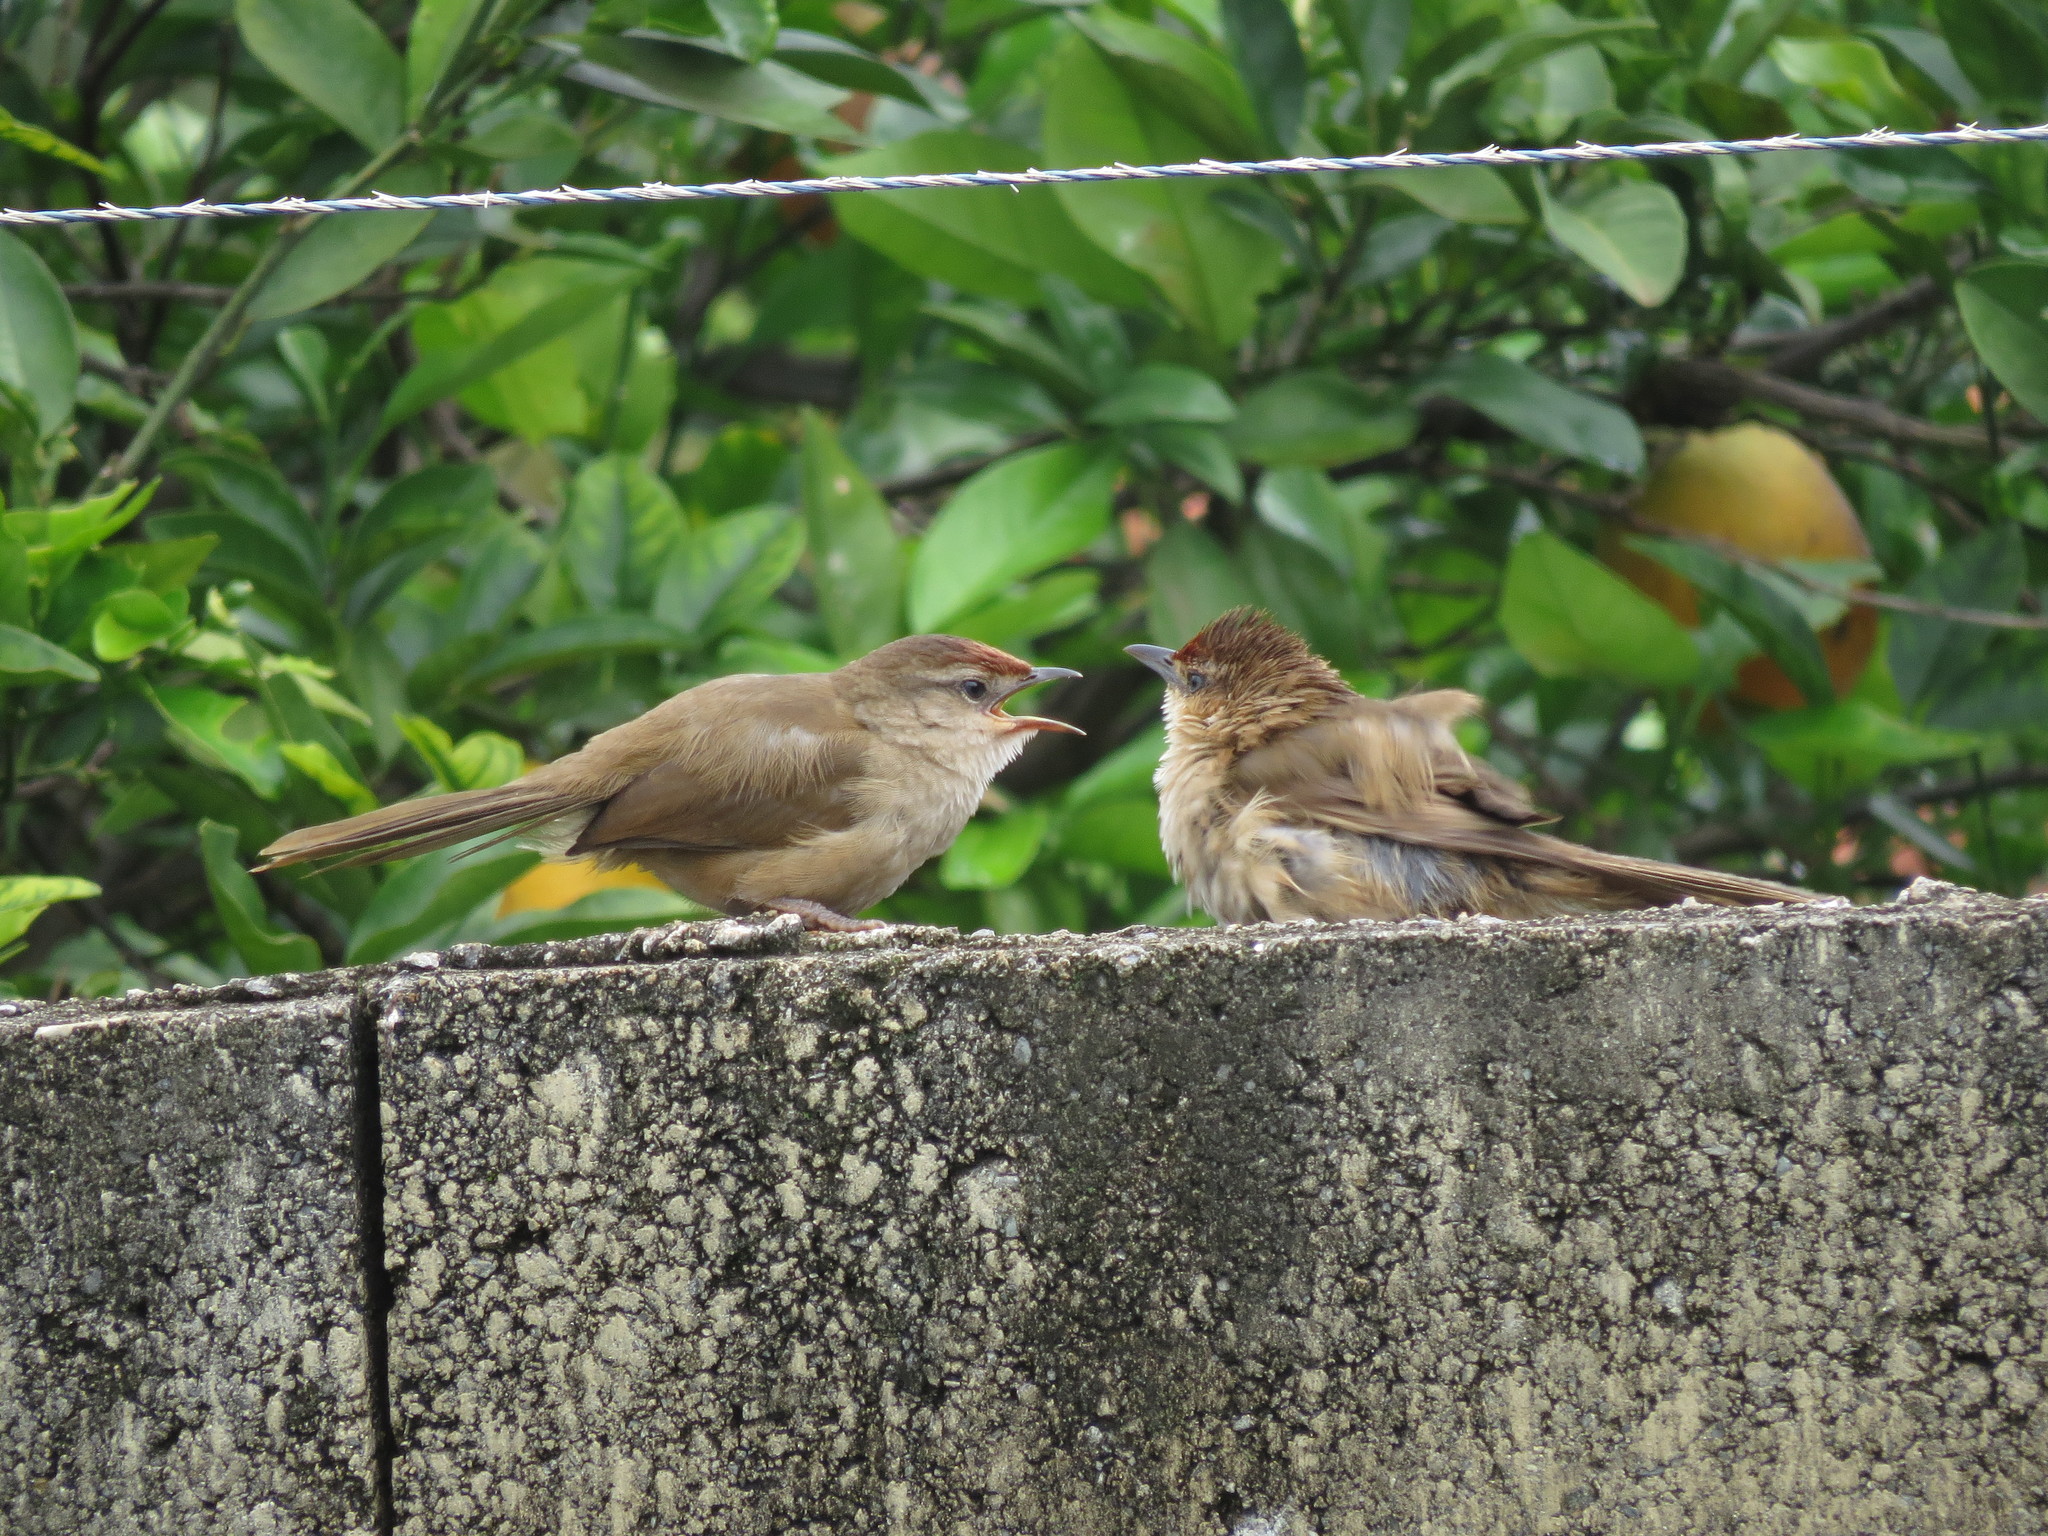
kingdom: Animalia
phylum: Chordata
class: Aves
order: Passeriformes
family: Furnariidae
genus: Phacellodomus
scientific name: Phacellodomus rufifrons
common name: Rufous-fronted thornbird
